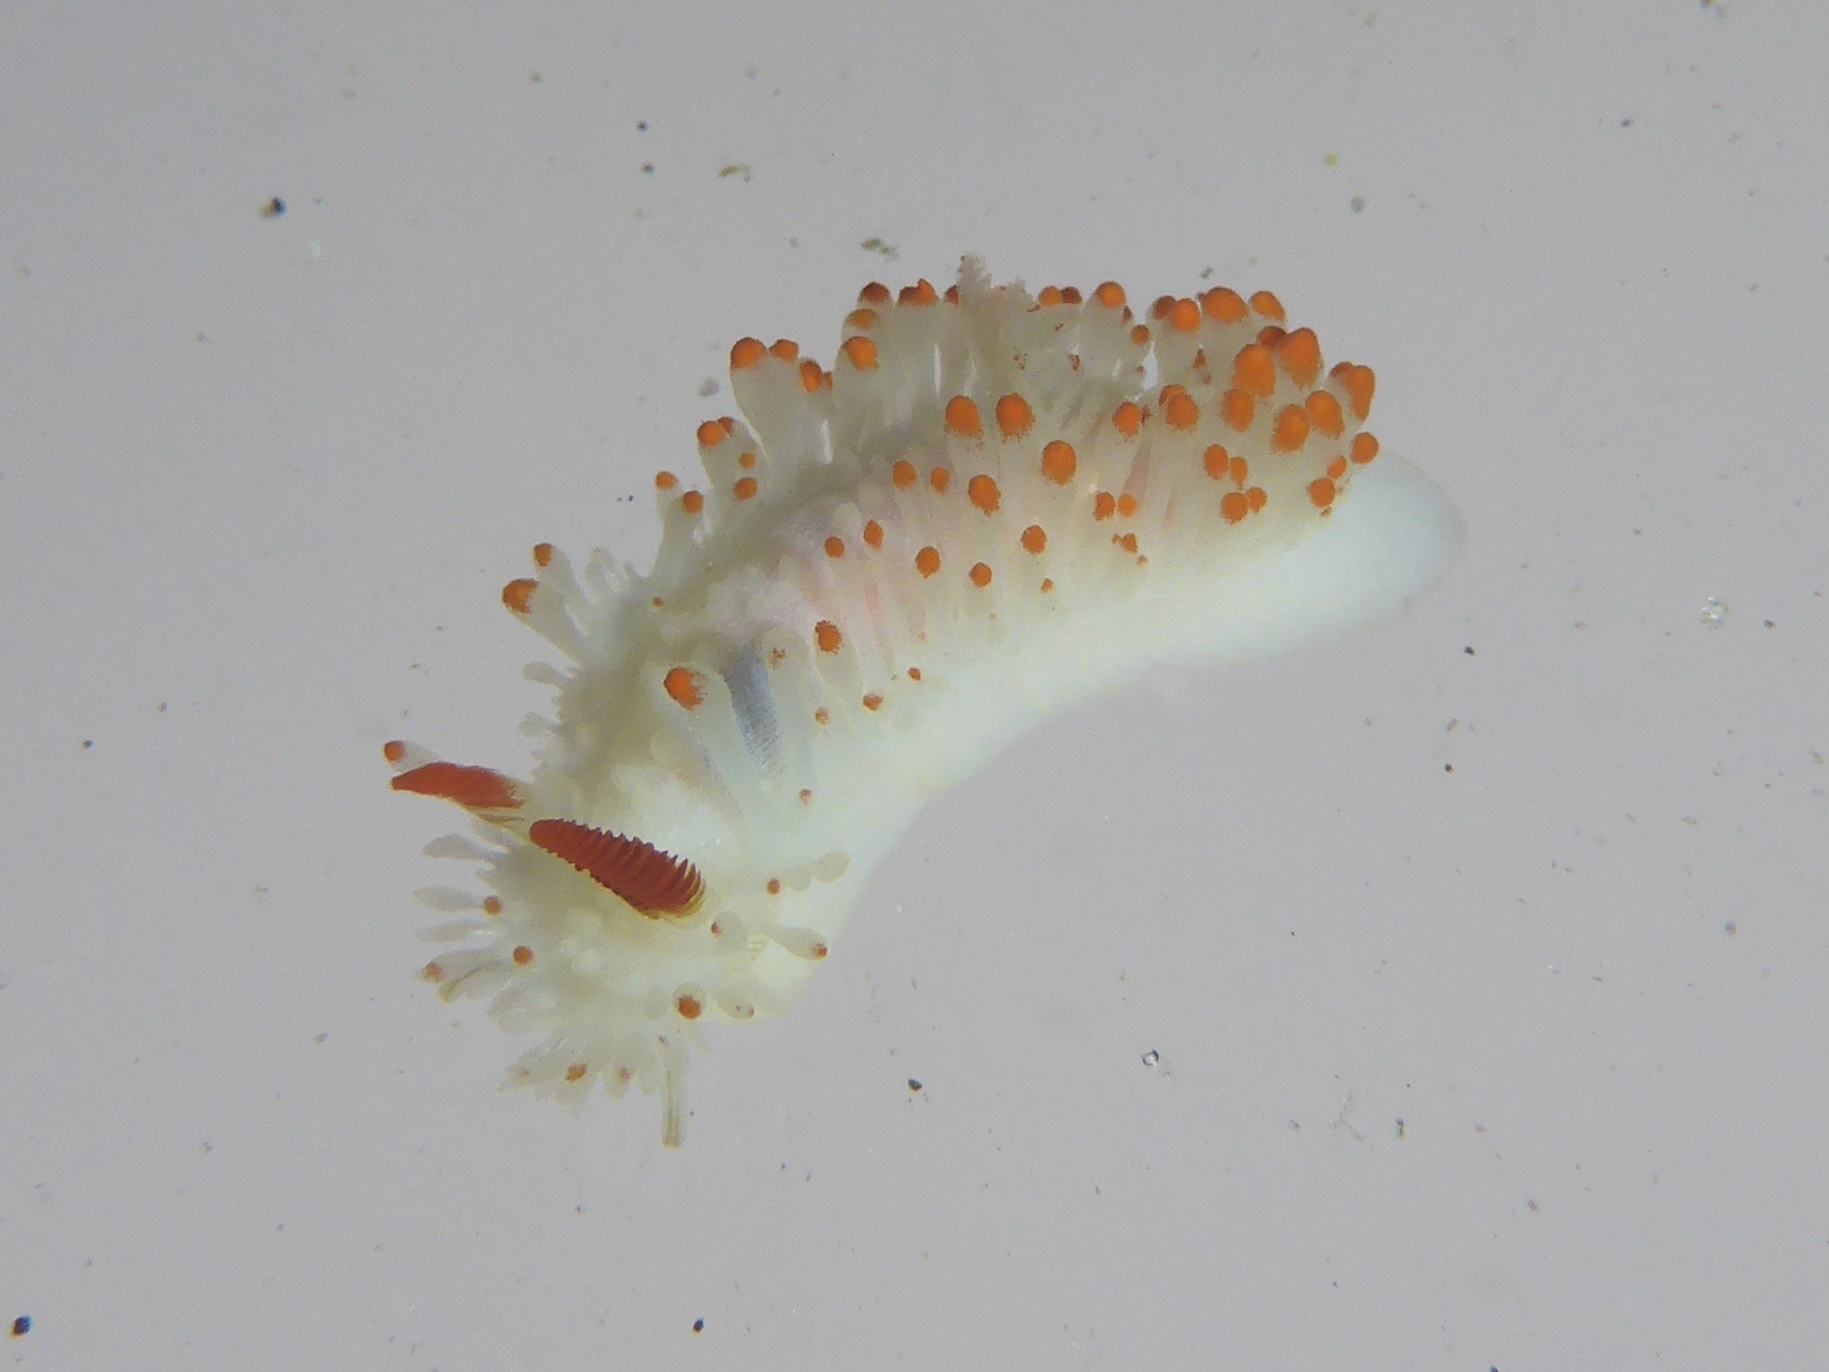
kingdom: Animalia
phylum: Mollusca
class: Gastropoda
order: Nudibranchia
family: Polyceridae
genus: Limacia
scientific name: Limacia cockerelli
